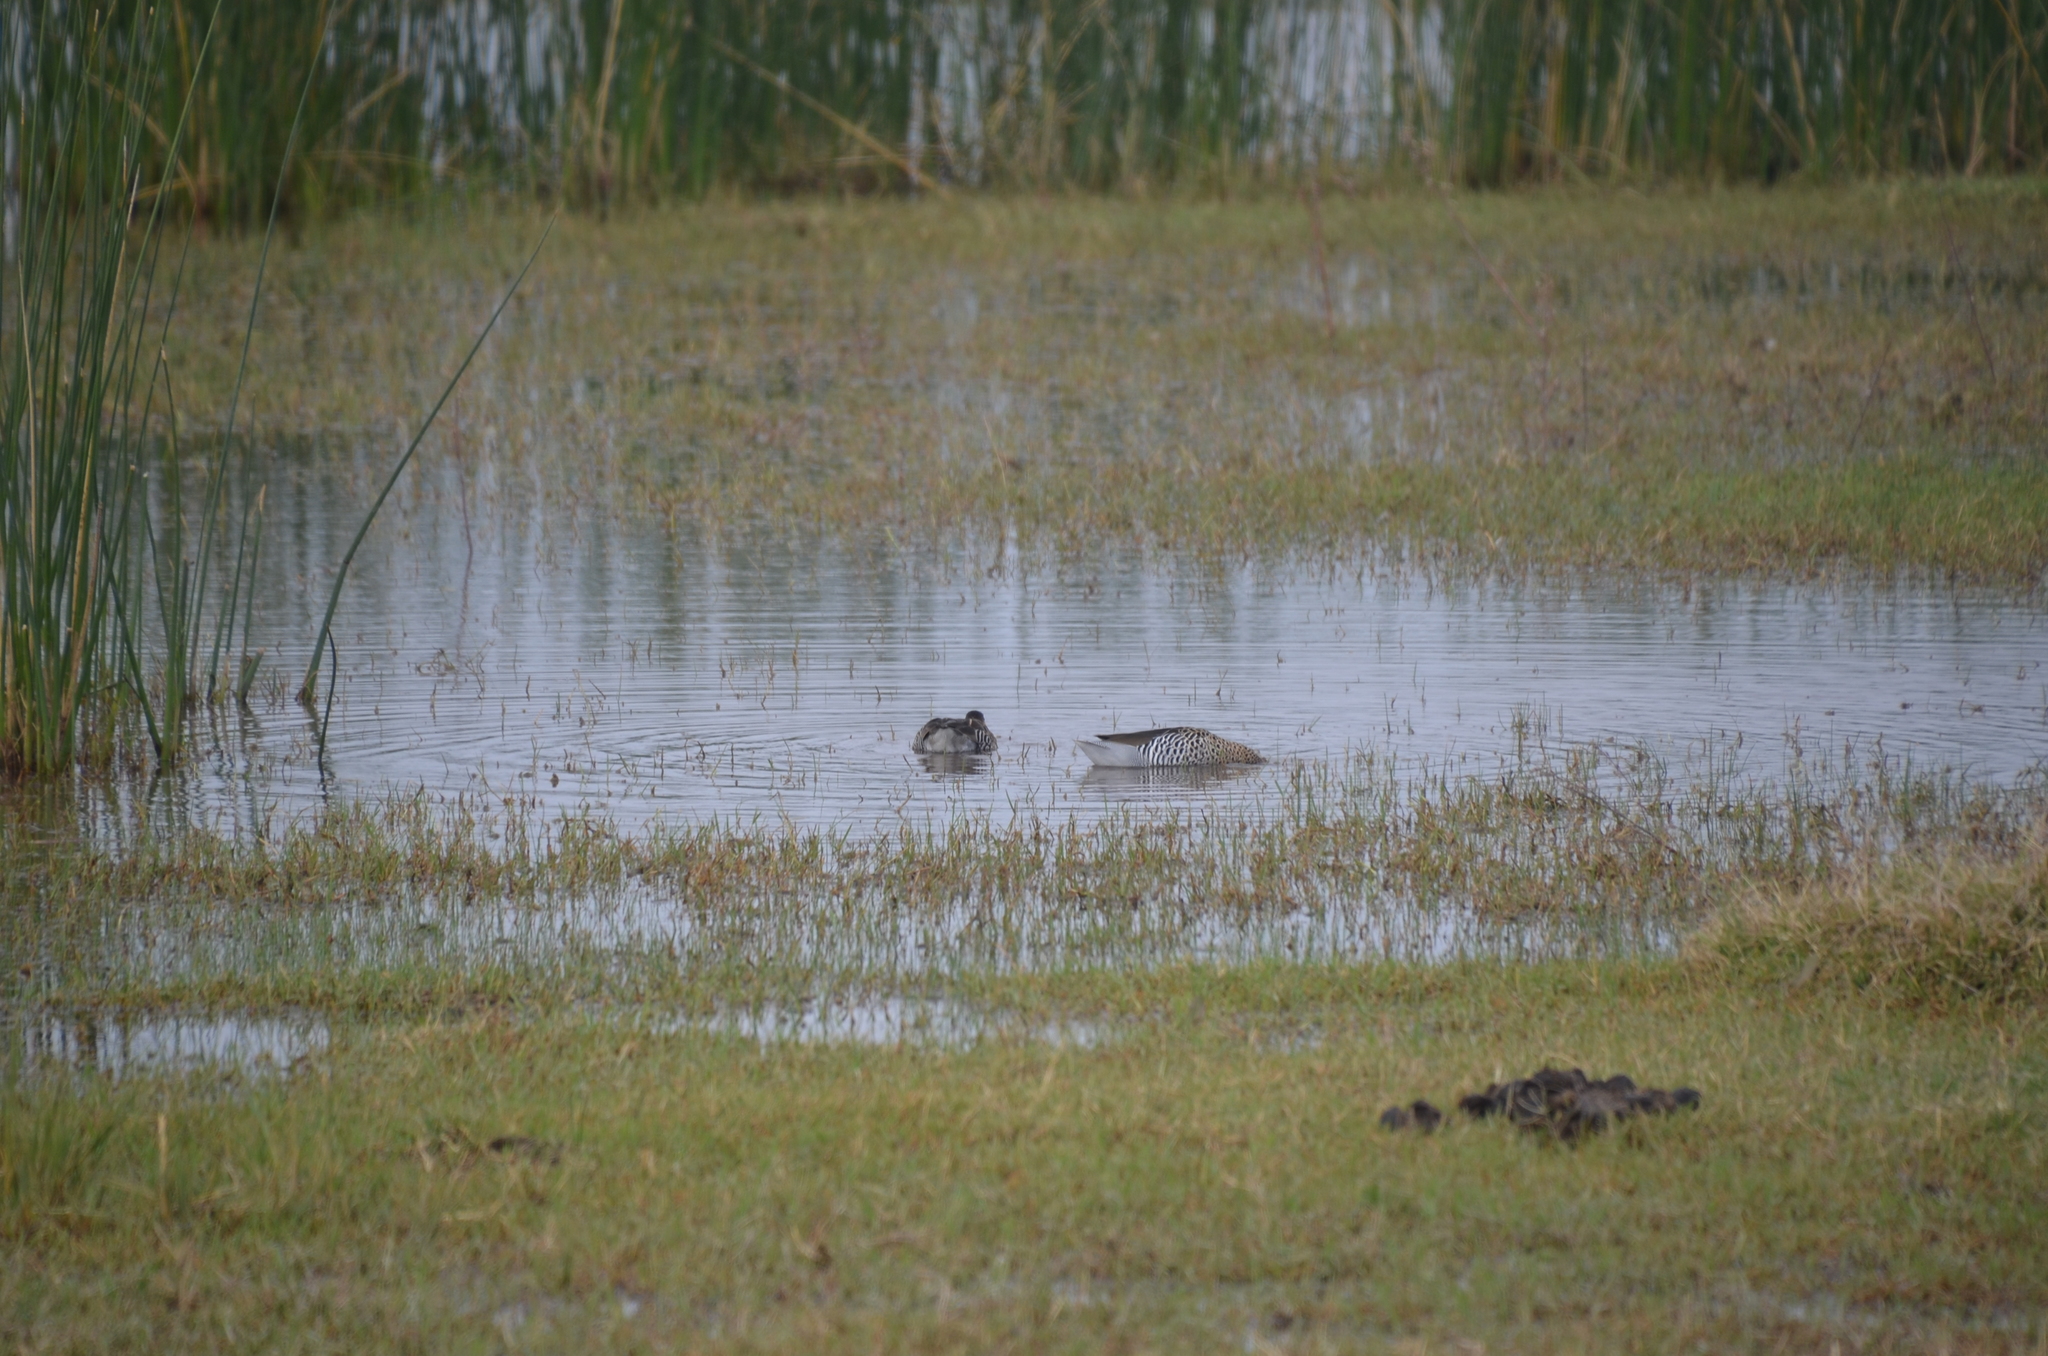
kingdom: Animalia
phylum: Chordata
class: Aves
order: Anseriformes
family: Anatidae
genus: Spatula
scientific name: Spatula versicolor
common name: Silver teal
